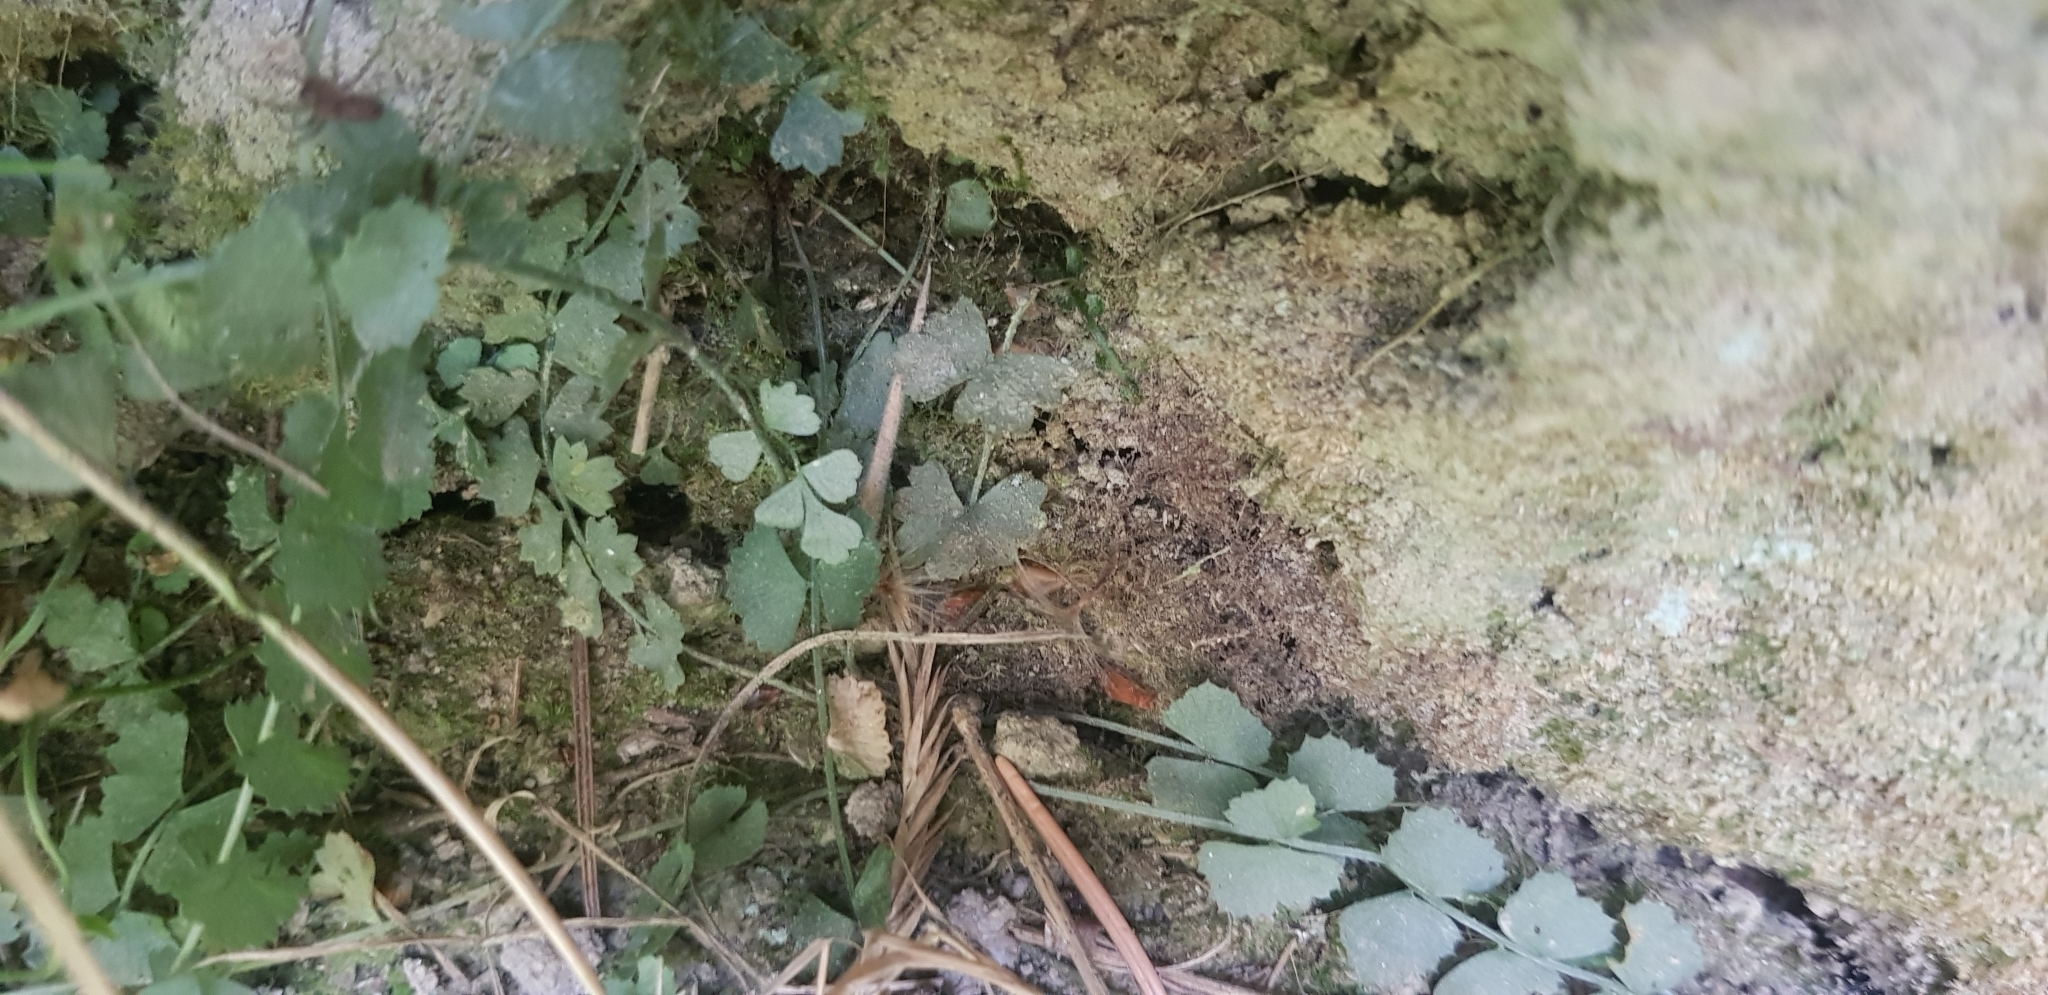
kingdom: Plantae
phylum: Tracheophyta
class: Polypodiopsida
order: Polypodiales
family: Aspleniaceae
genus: Asplenium
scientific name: Asplenium flabellifolium
